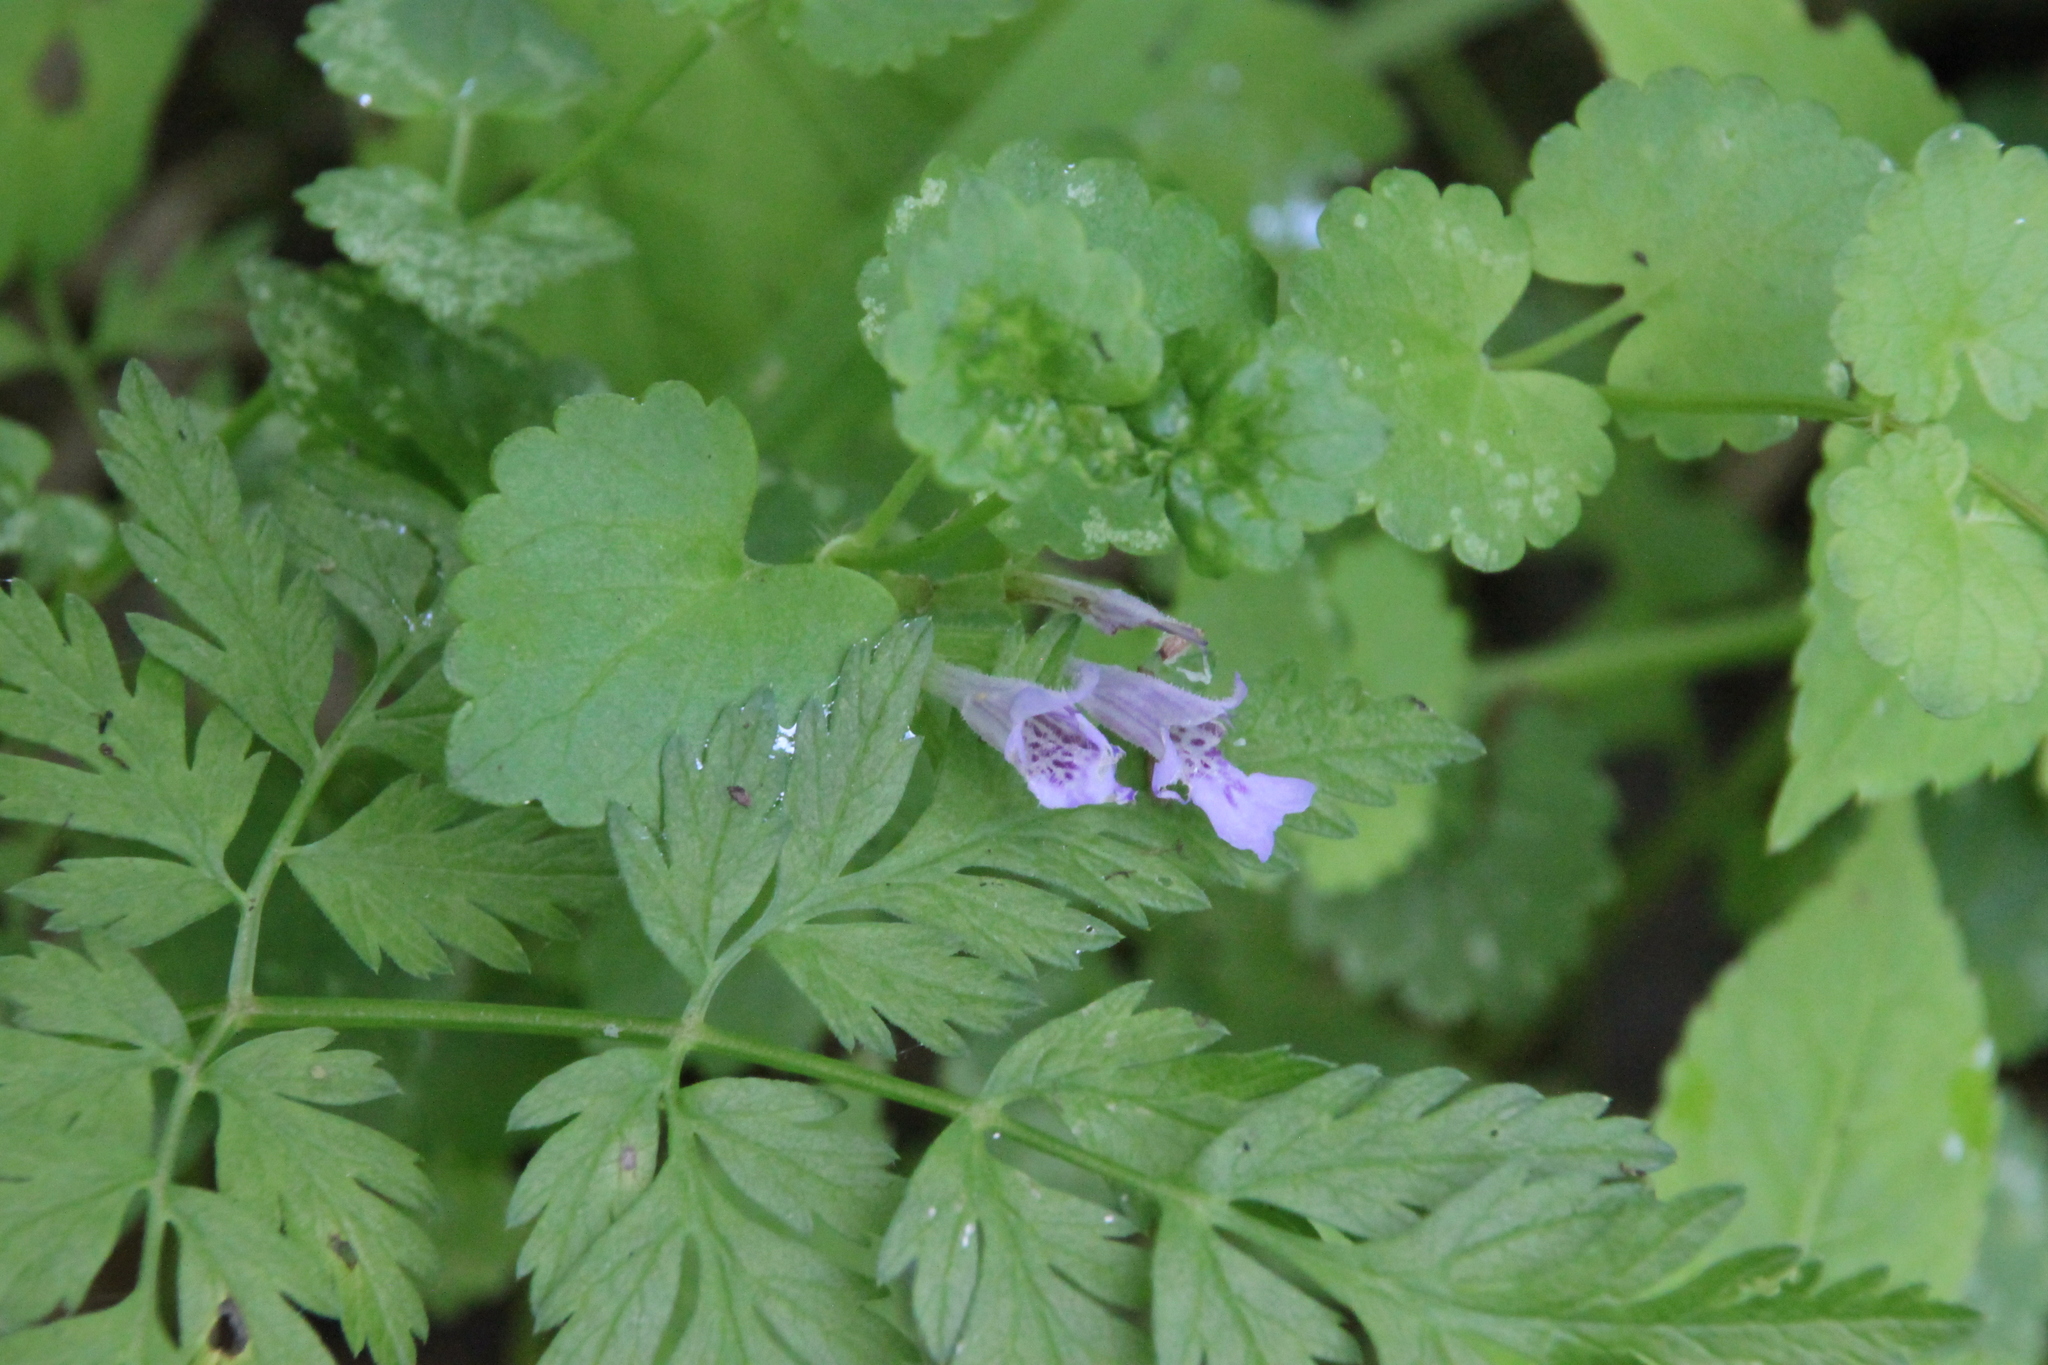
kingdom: Plantae
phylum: Tracheophyta
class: Magnoliopsida
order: Lamiales
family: Lamiaceae
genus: Glechoma
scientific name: Glechoma hederacea
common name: Ground ivy
